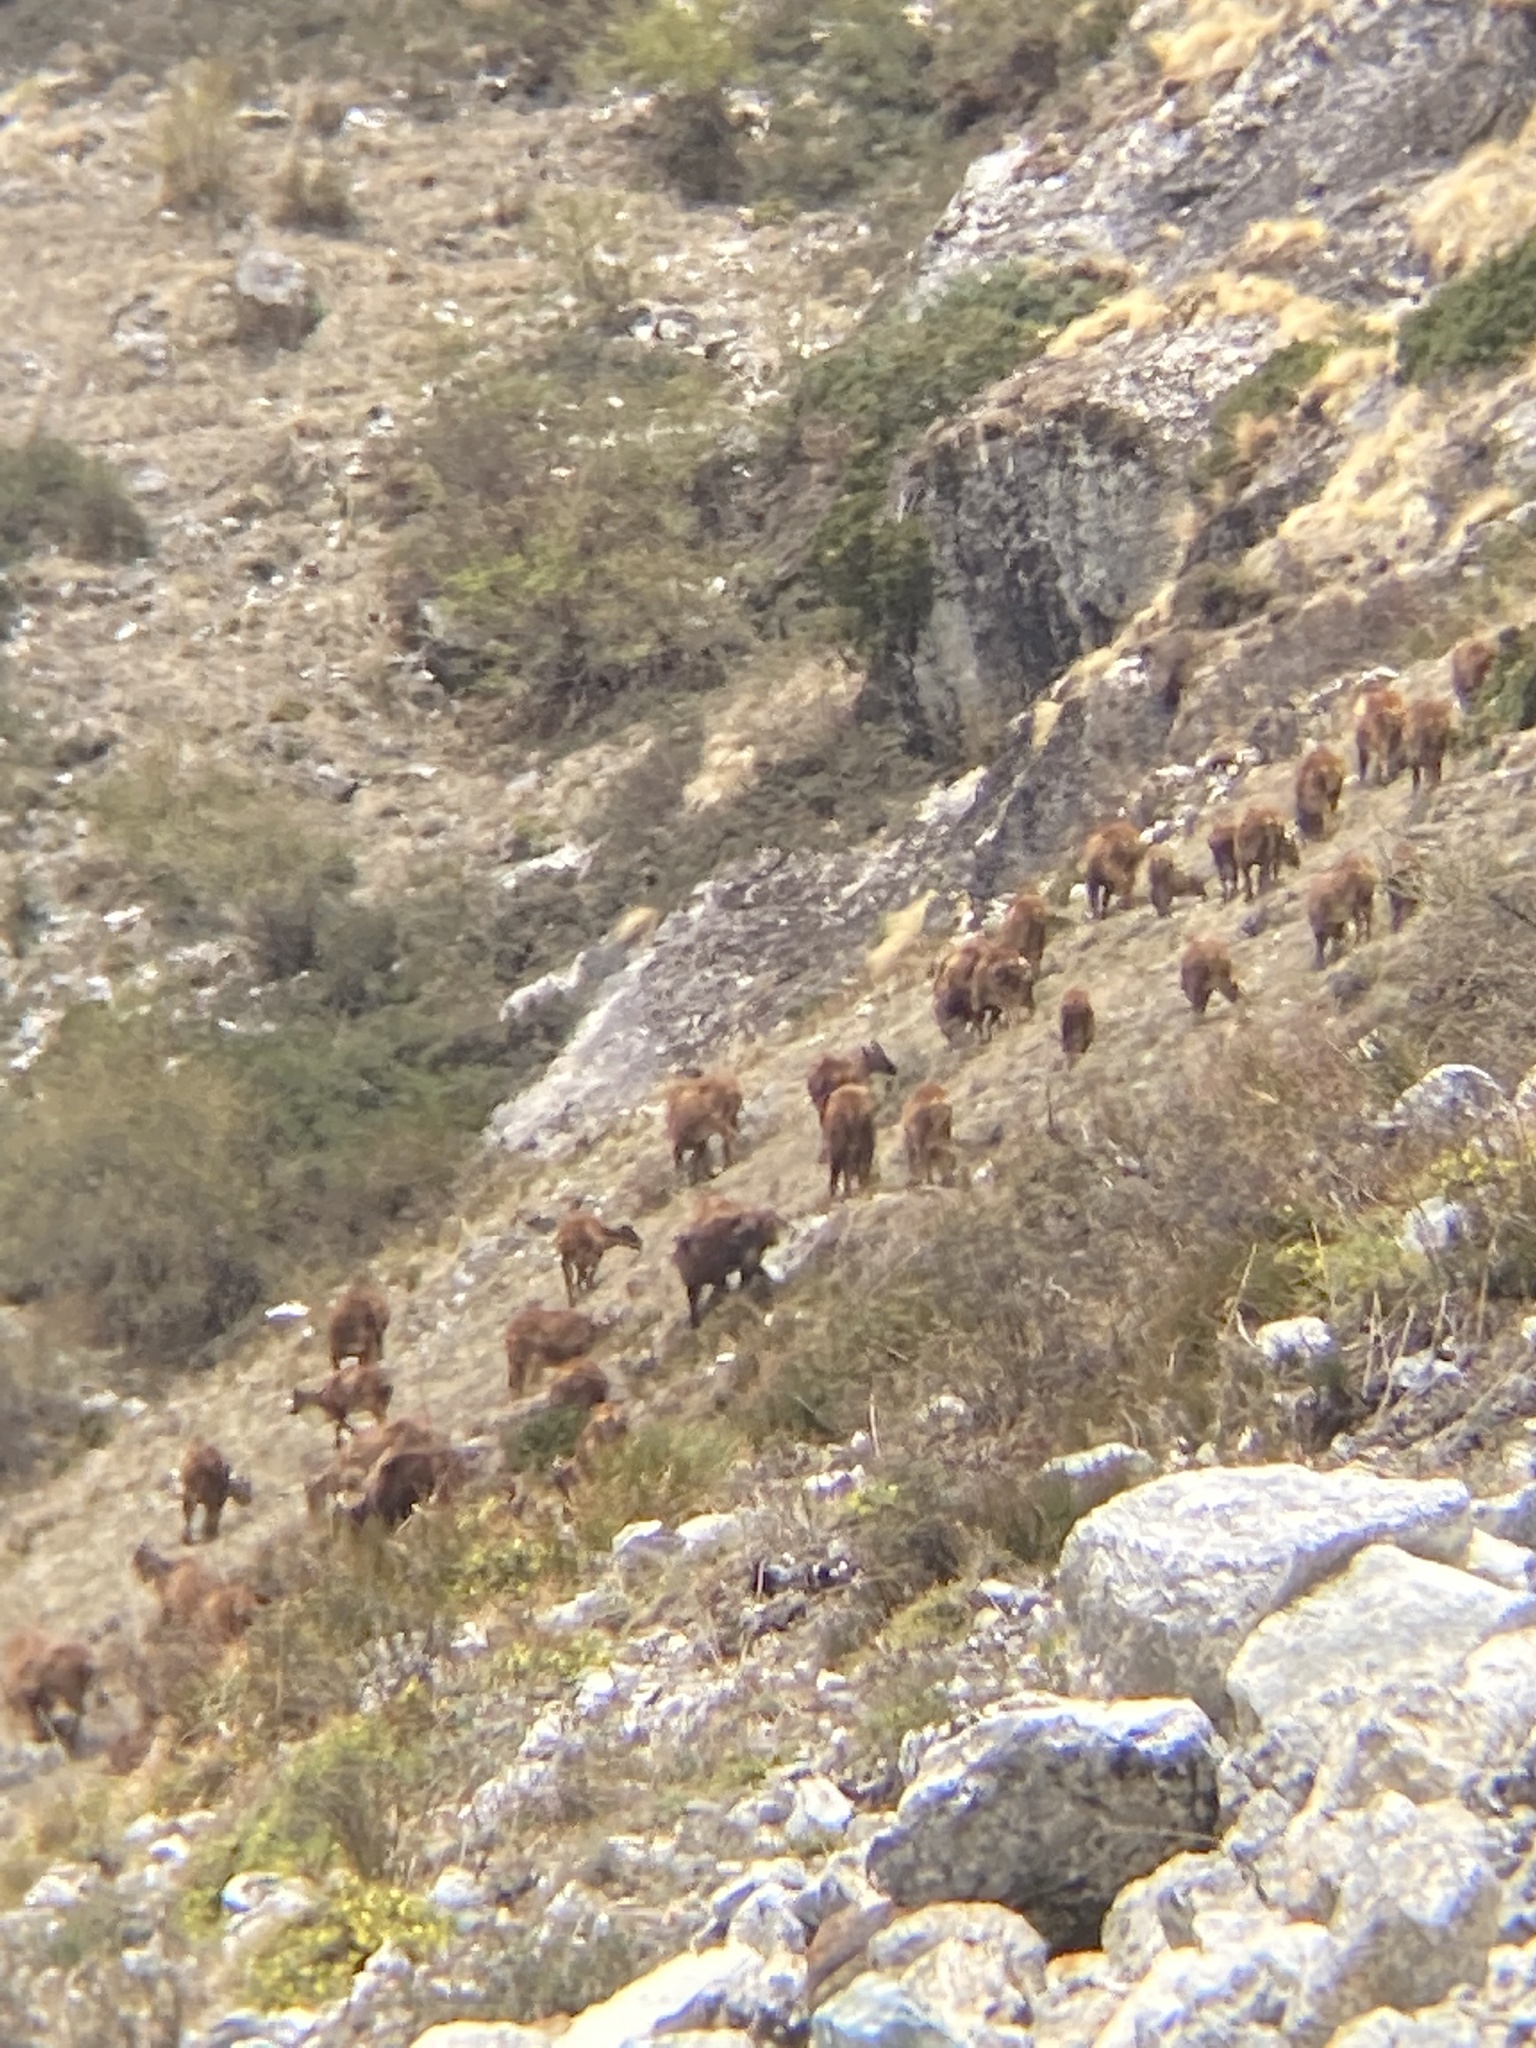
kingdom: Animalia
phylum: Chordata
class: Mammalia
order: Artiodactyla
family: Bovidae
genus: Hemitragus
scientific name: Hemitragus jemlahicus
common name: Himalayan tahr
